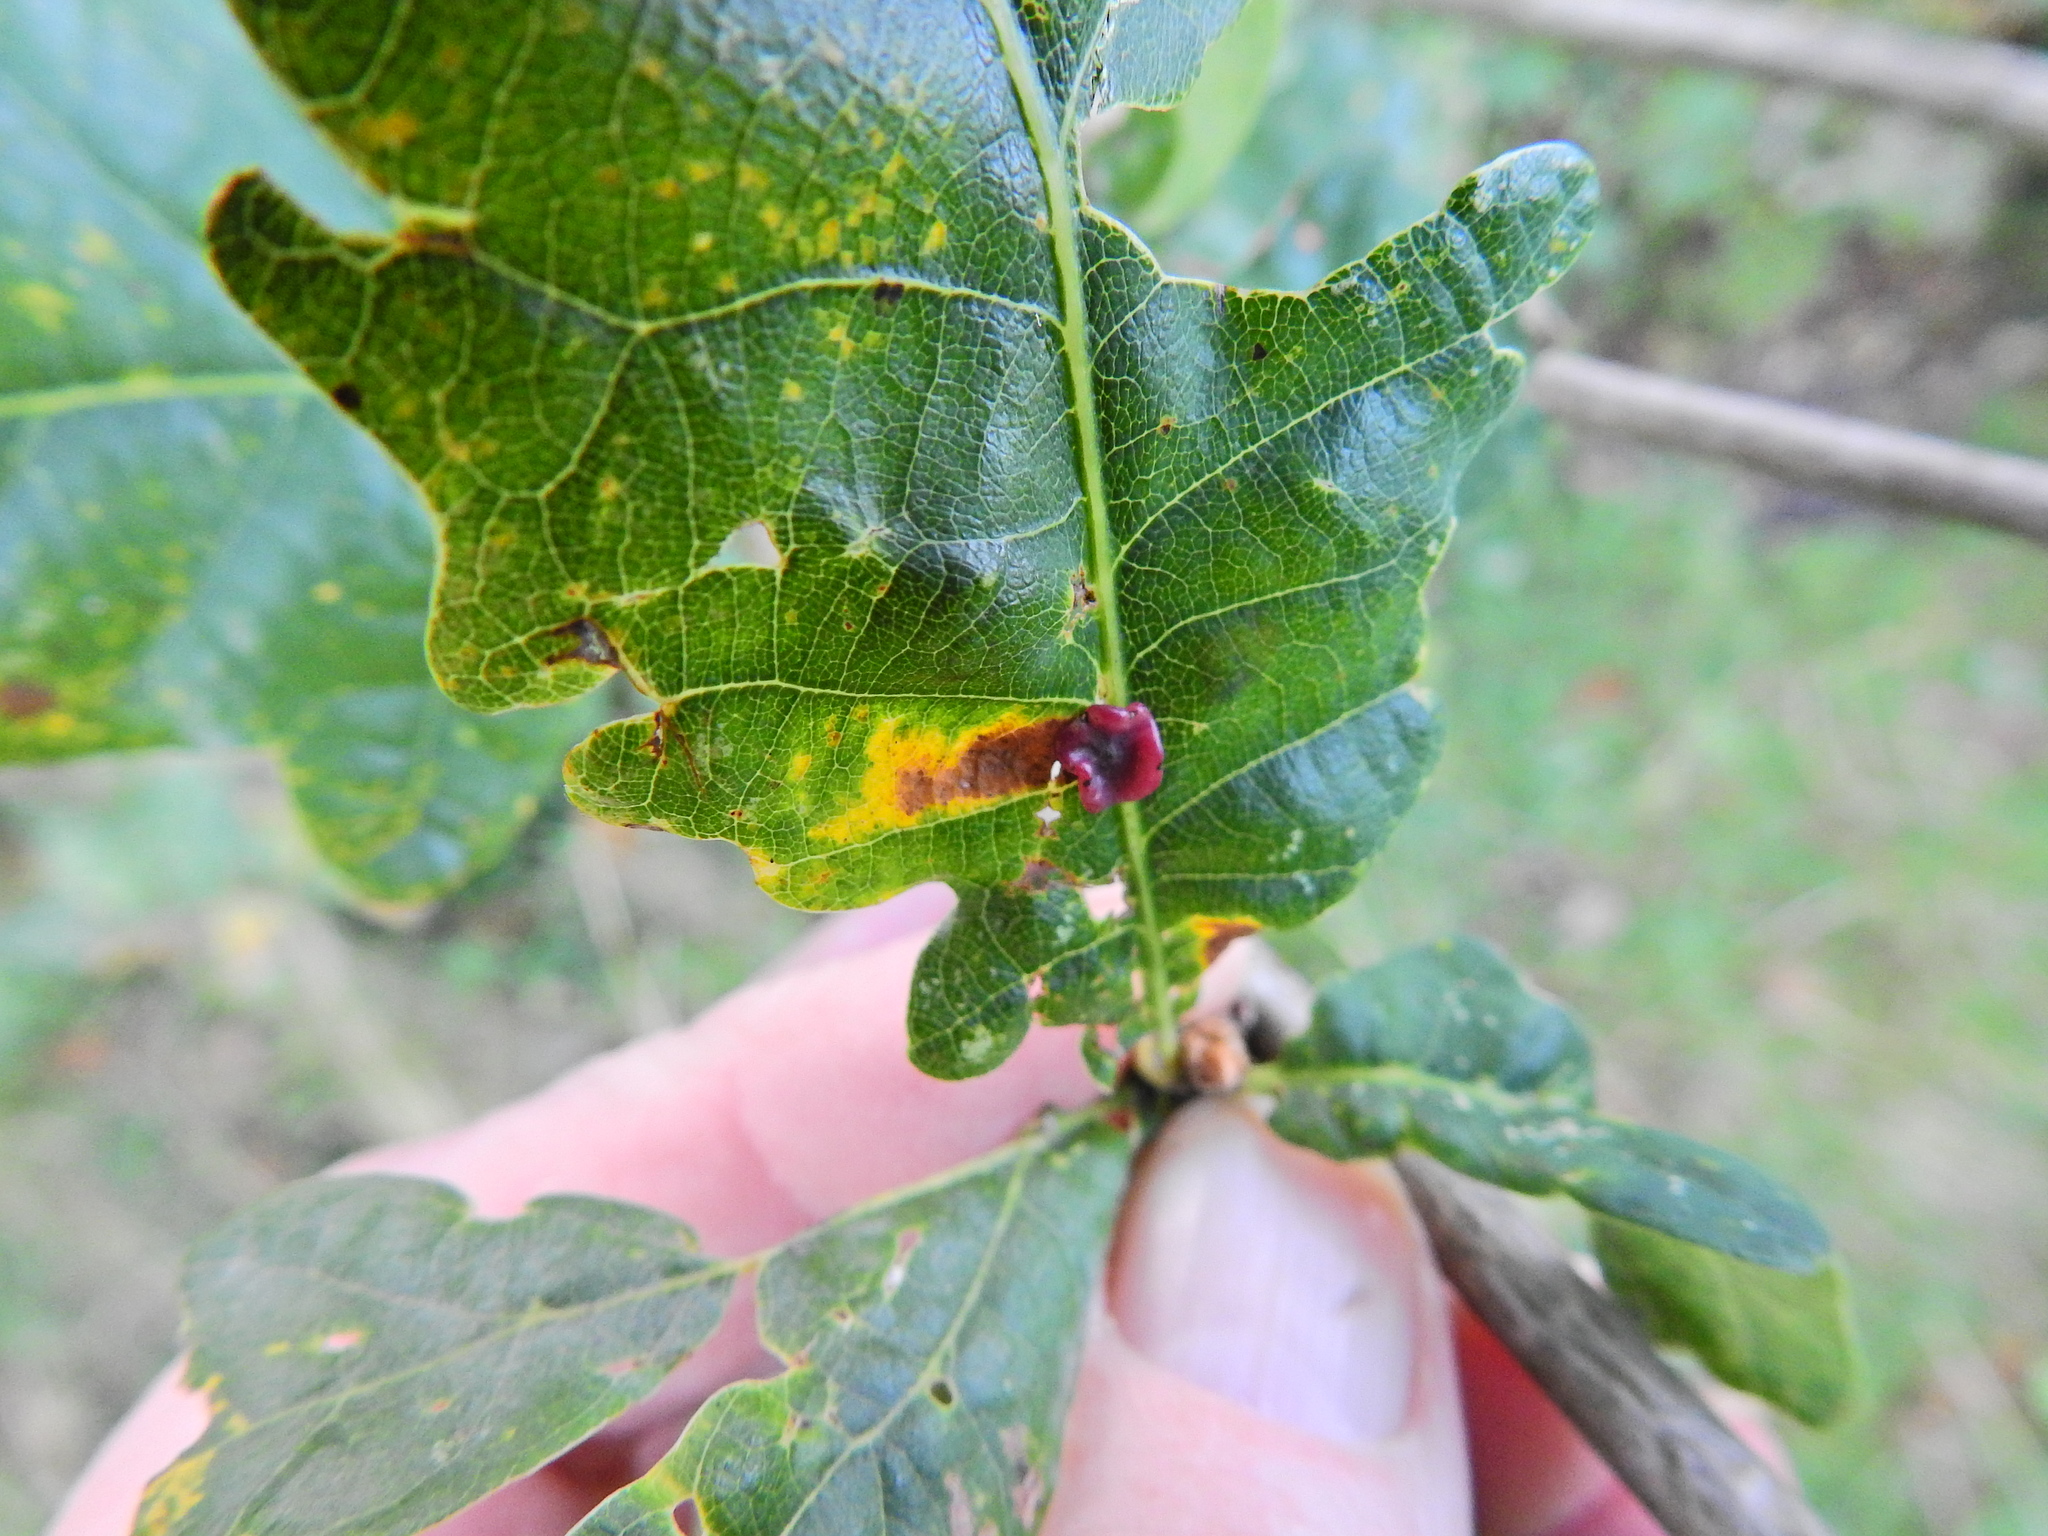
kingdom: Animalia
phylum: Arthropoda
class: Insecta
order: Hymenoptera
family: Cynipidae
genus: Neuroterus
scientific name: Neuroterus albipes
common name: Smooth spangle gall
